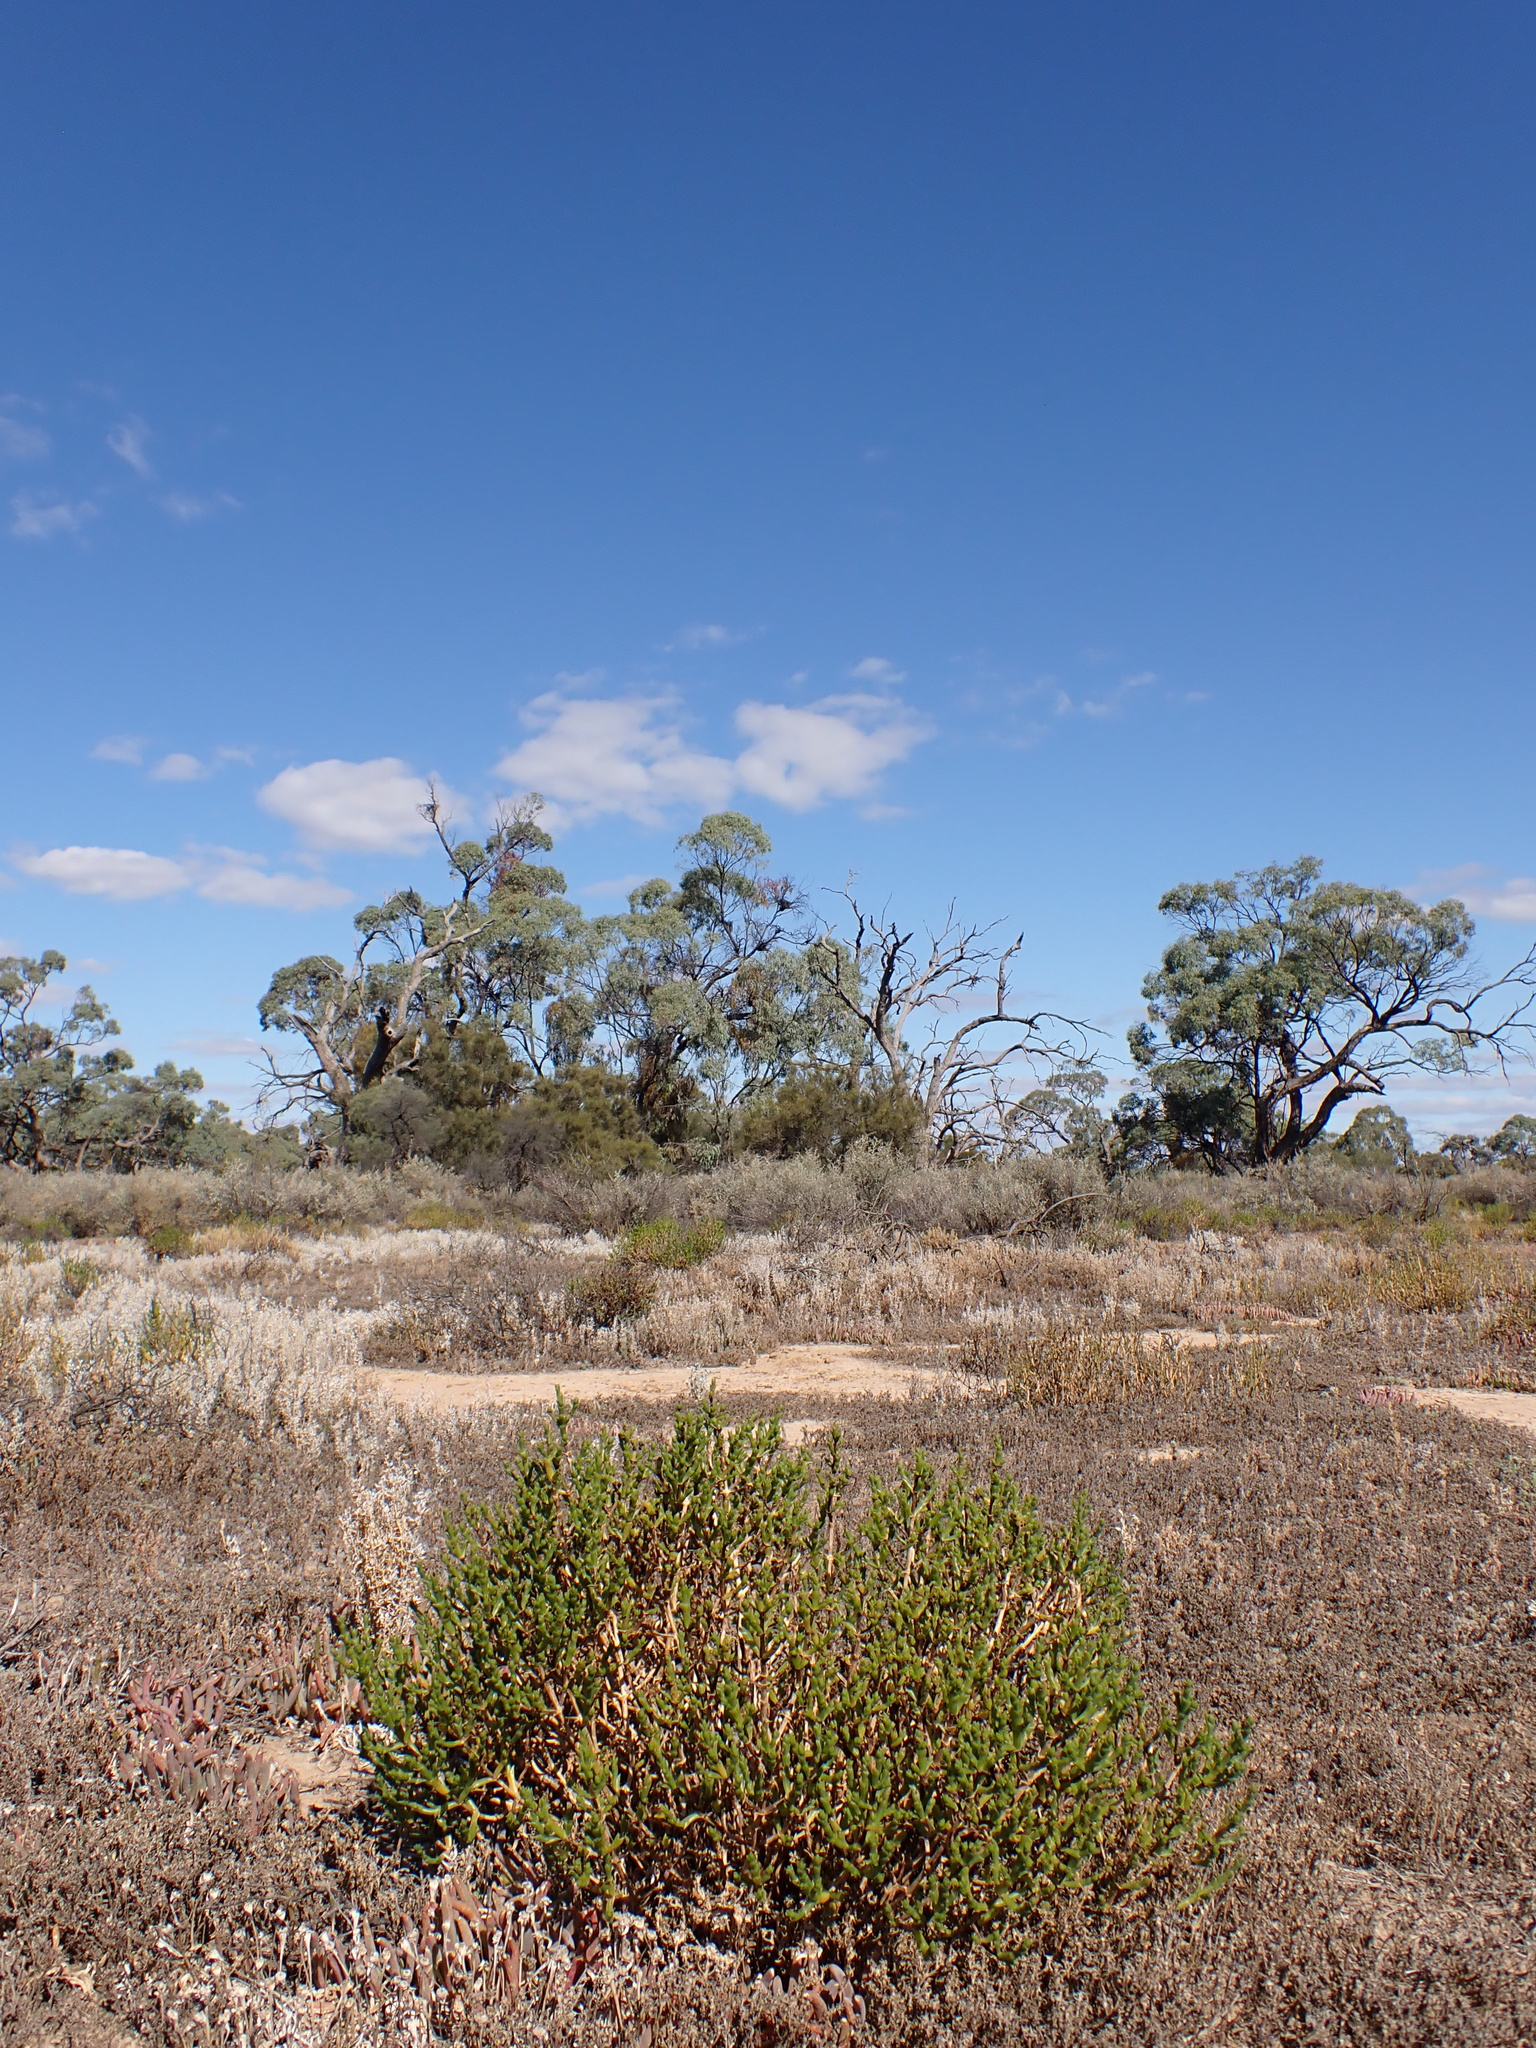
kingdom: Plantae
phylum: Tracheophyta
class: Magnoliopsida
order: Caryophyllales
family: Amaranthaceae
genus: Tecticornia
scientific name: Tecticornia triandra
